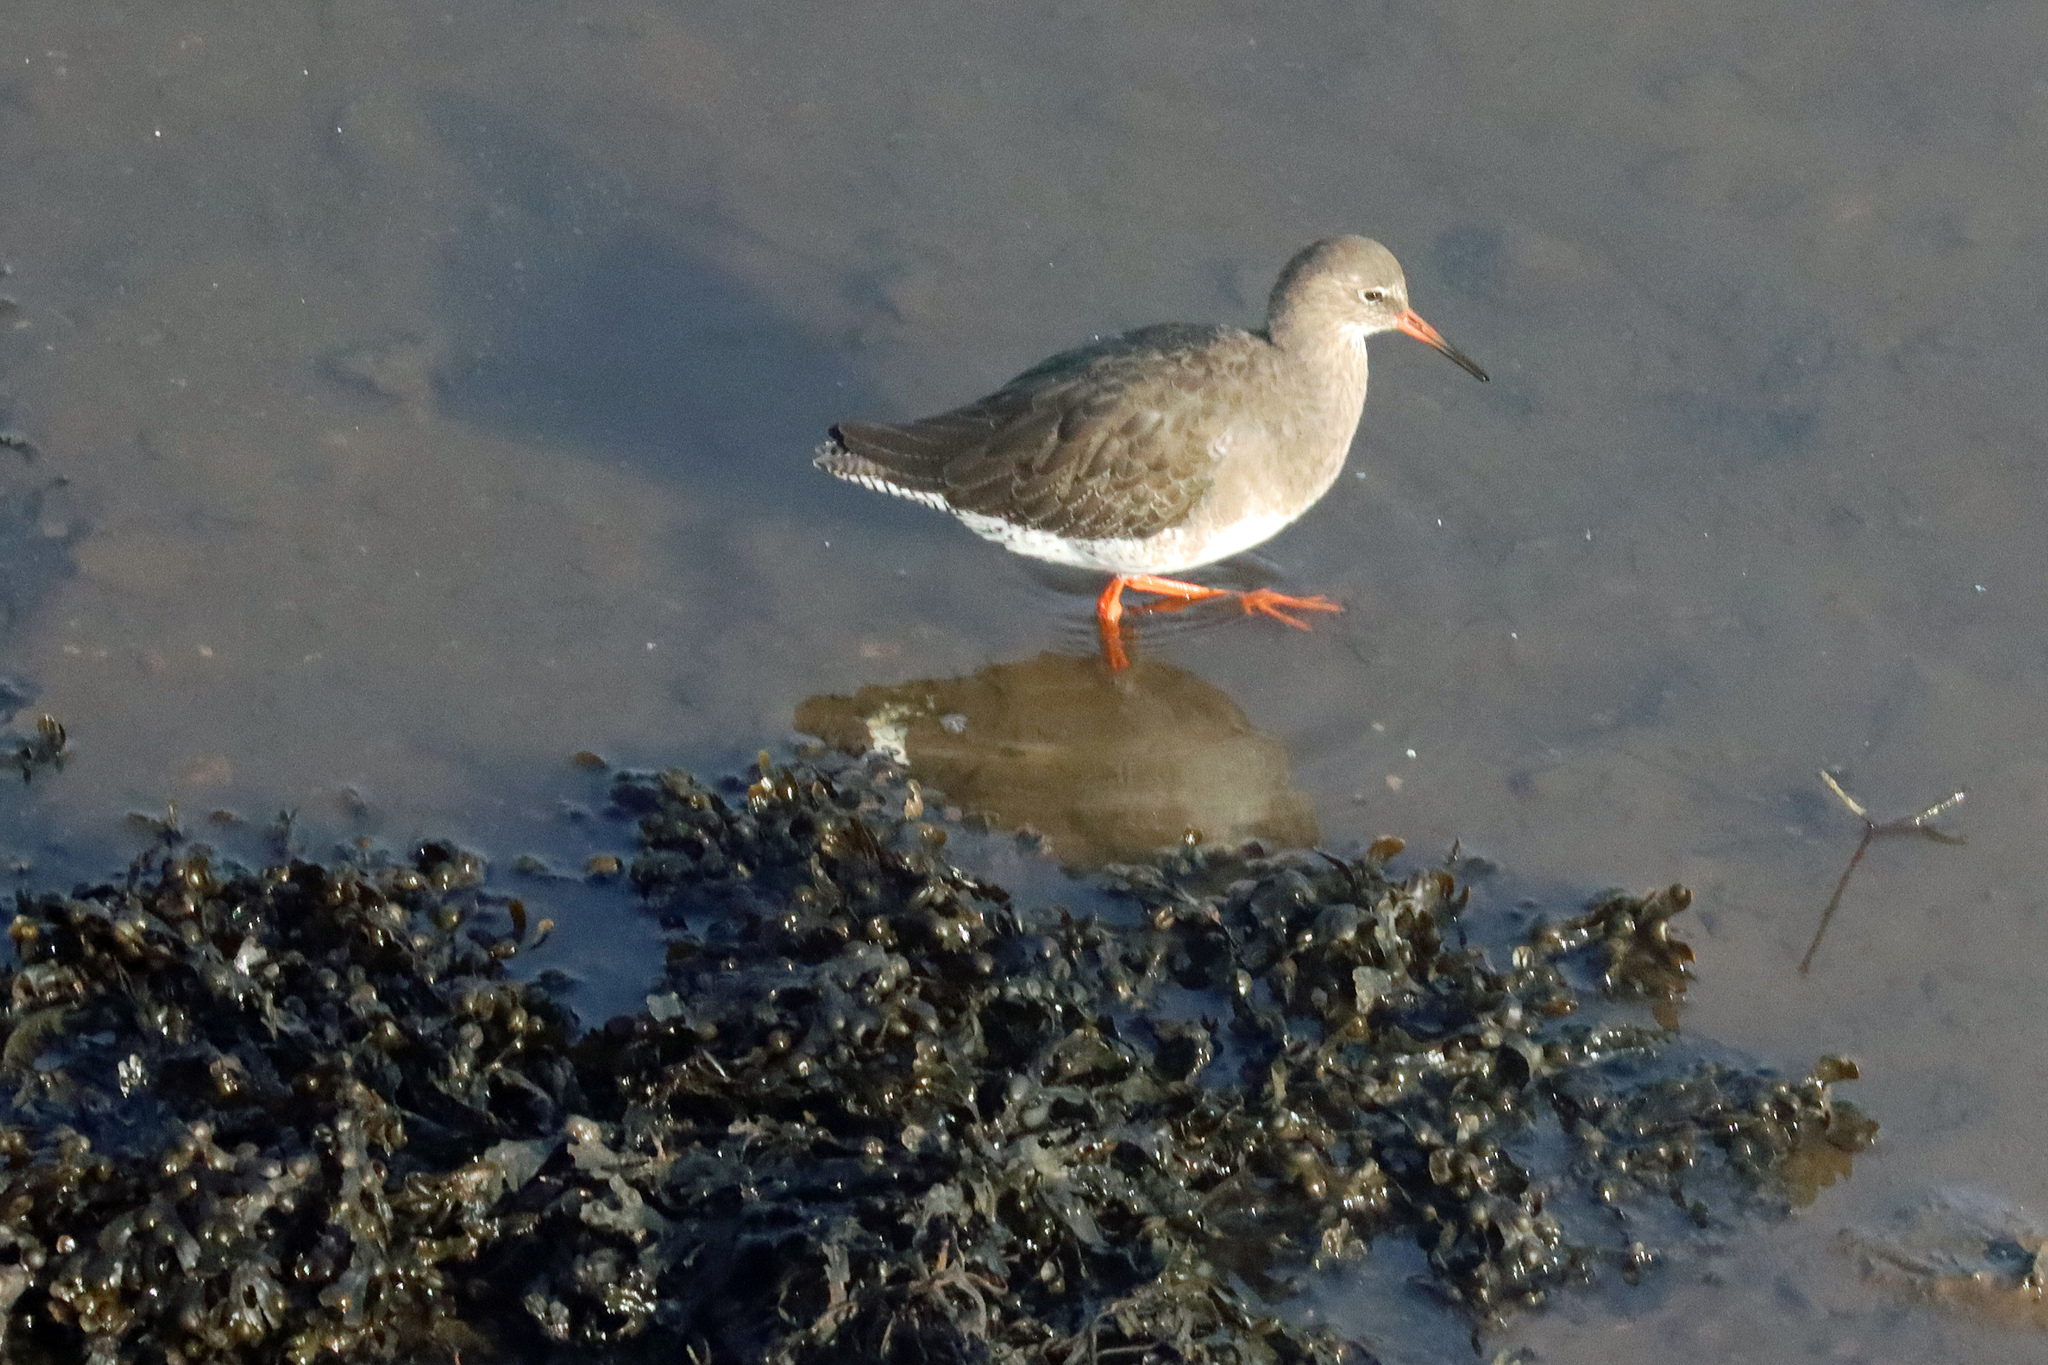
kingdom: Animalia
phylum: Chordata
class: Aves
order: Charadriiformes
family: Scolopacidae
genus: Tringa
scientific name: Tringa totanus
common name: Common redshank
